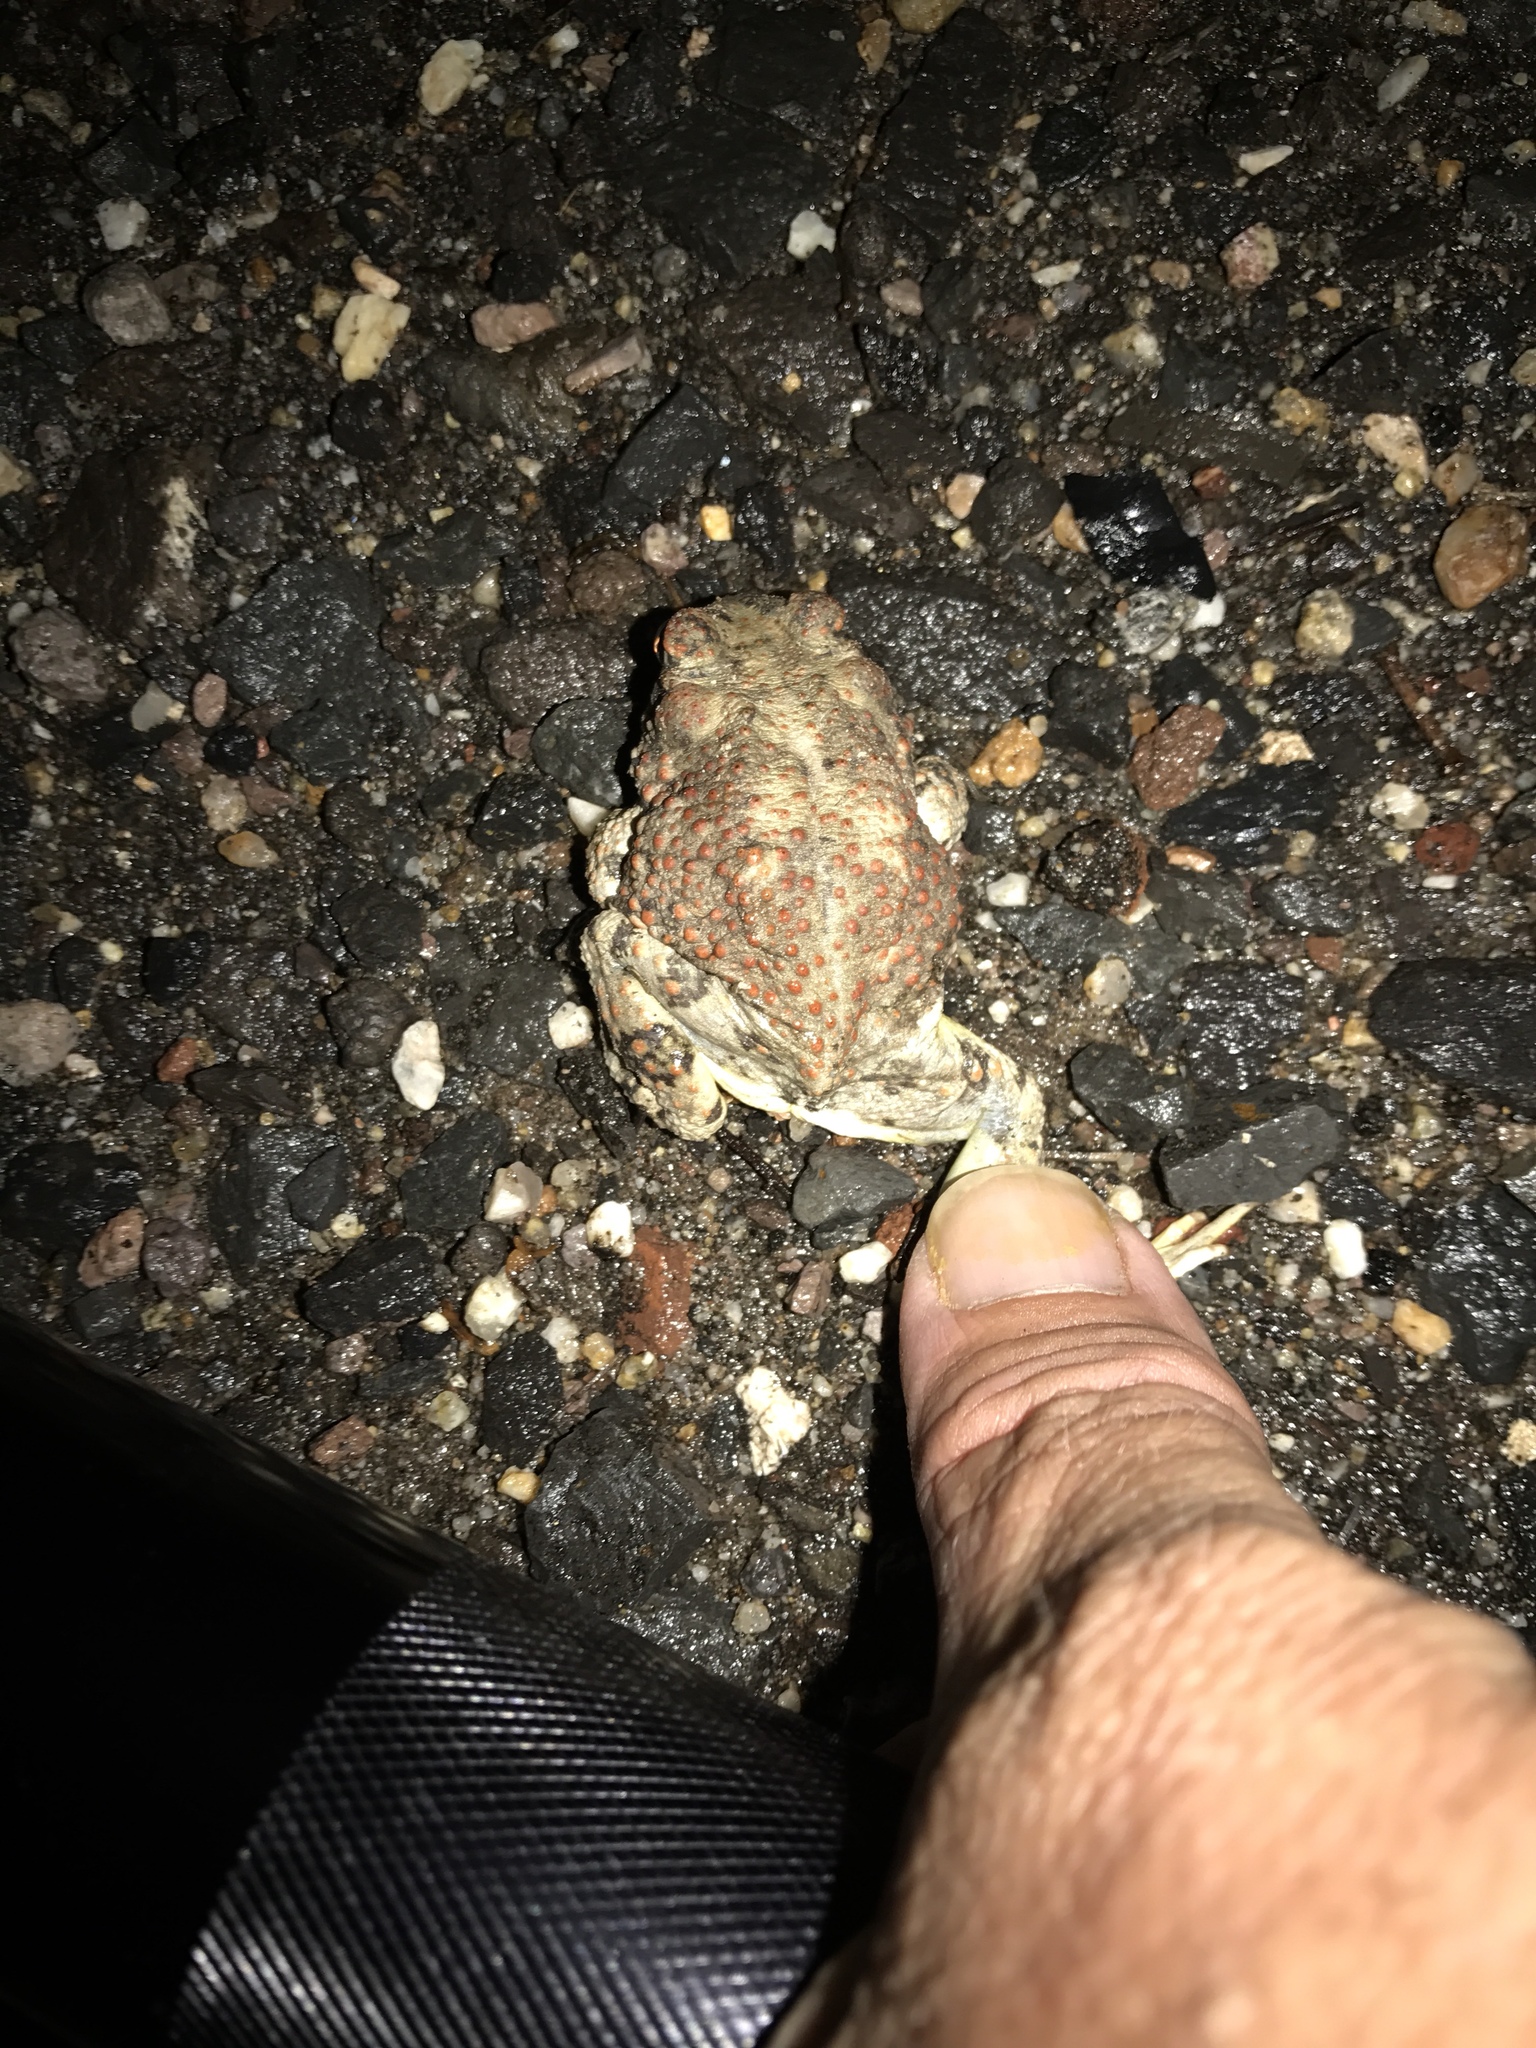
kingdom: Animalia
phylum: Chordata
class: Amphibia
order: Anura
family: Bufonidae
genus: Anaxyrus
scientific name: Anaxyrus punctatus
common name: Red-spotted toad
